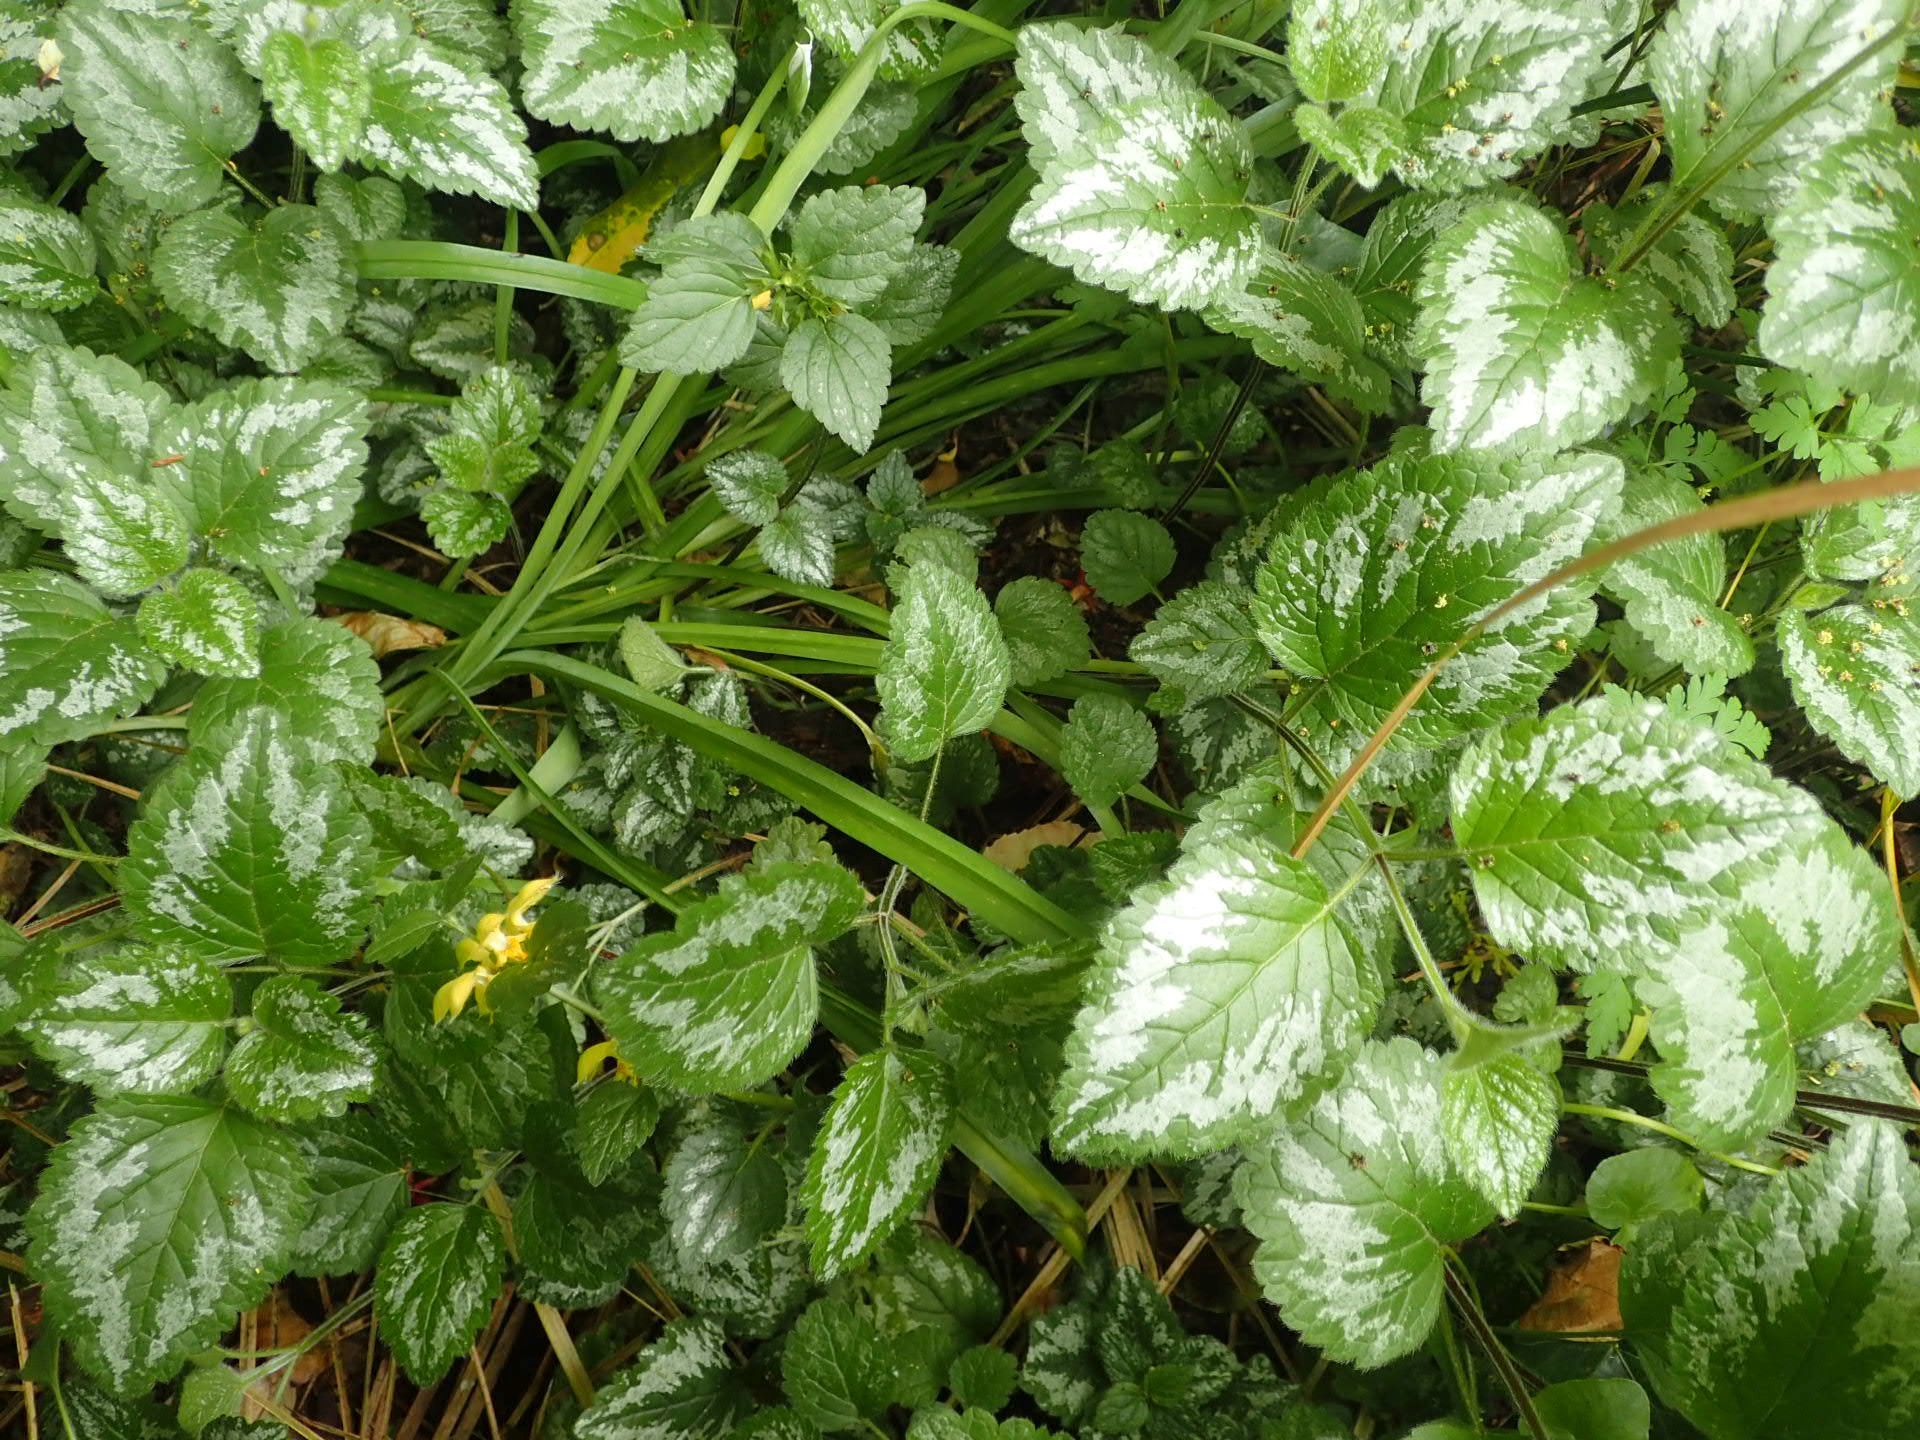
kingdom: Plantae
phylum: Tracheophyta
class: Magnoliopsida
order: Lamiales
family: Lamiaceae
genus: Lamium
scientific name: Lamium galeobdolon
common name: Yellow archangel
